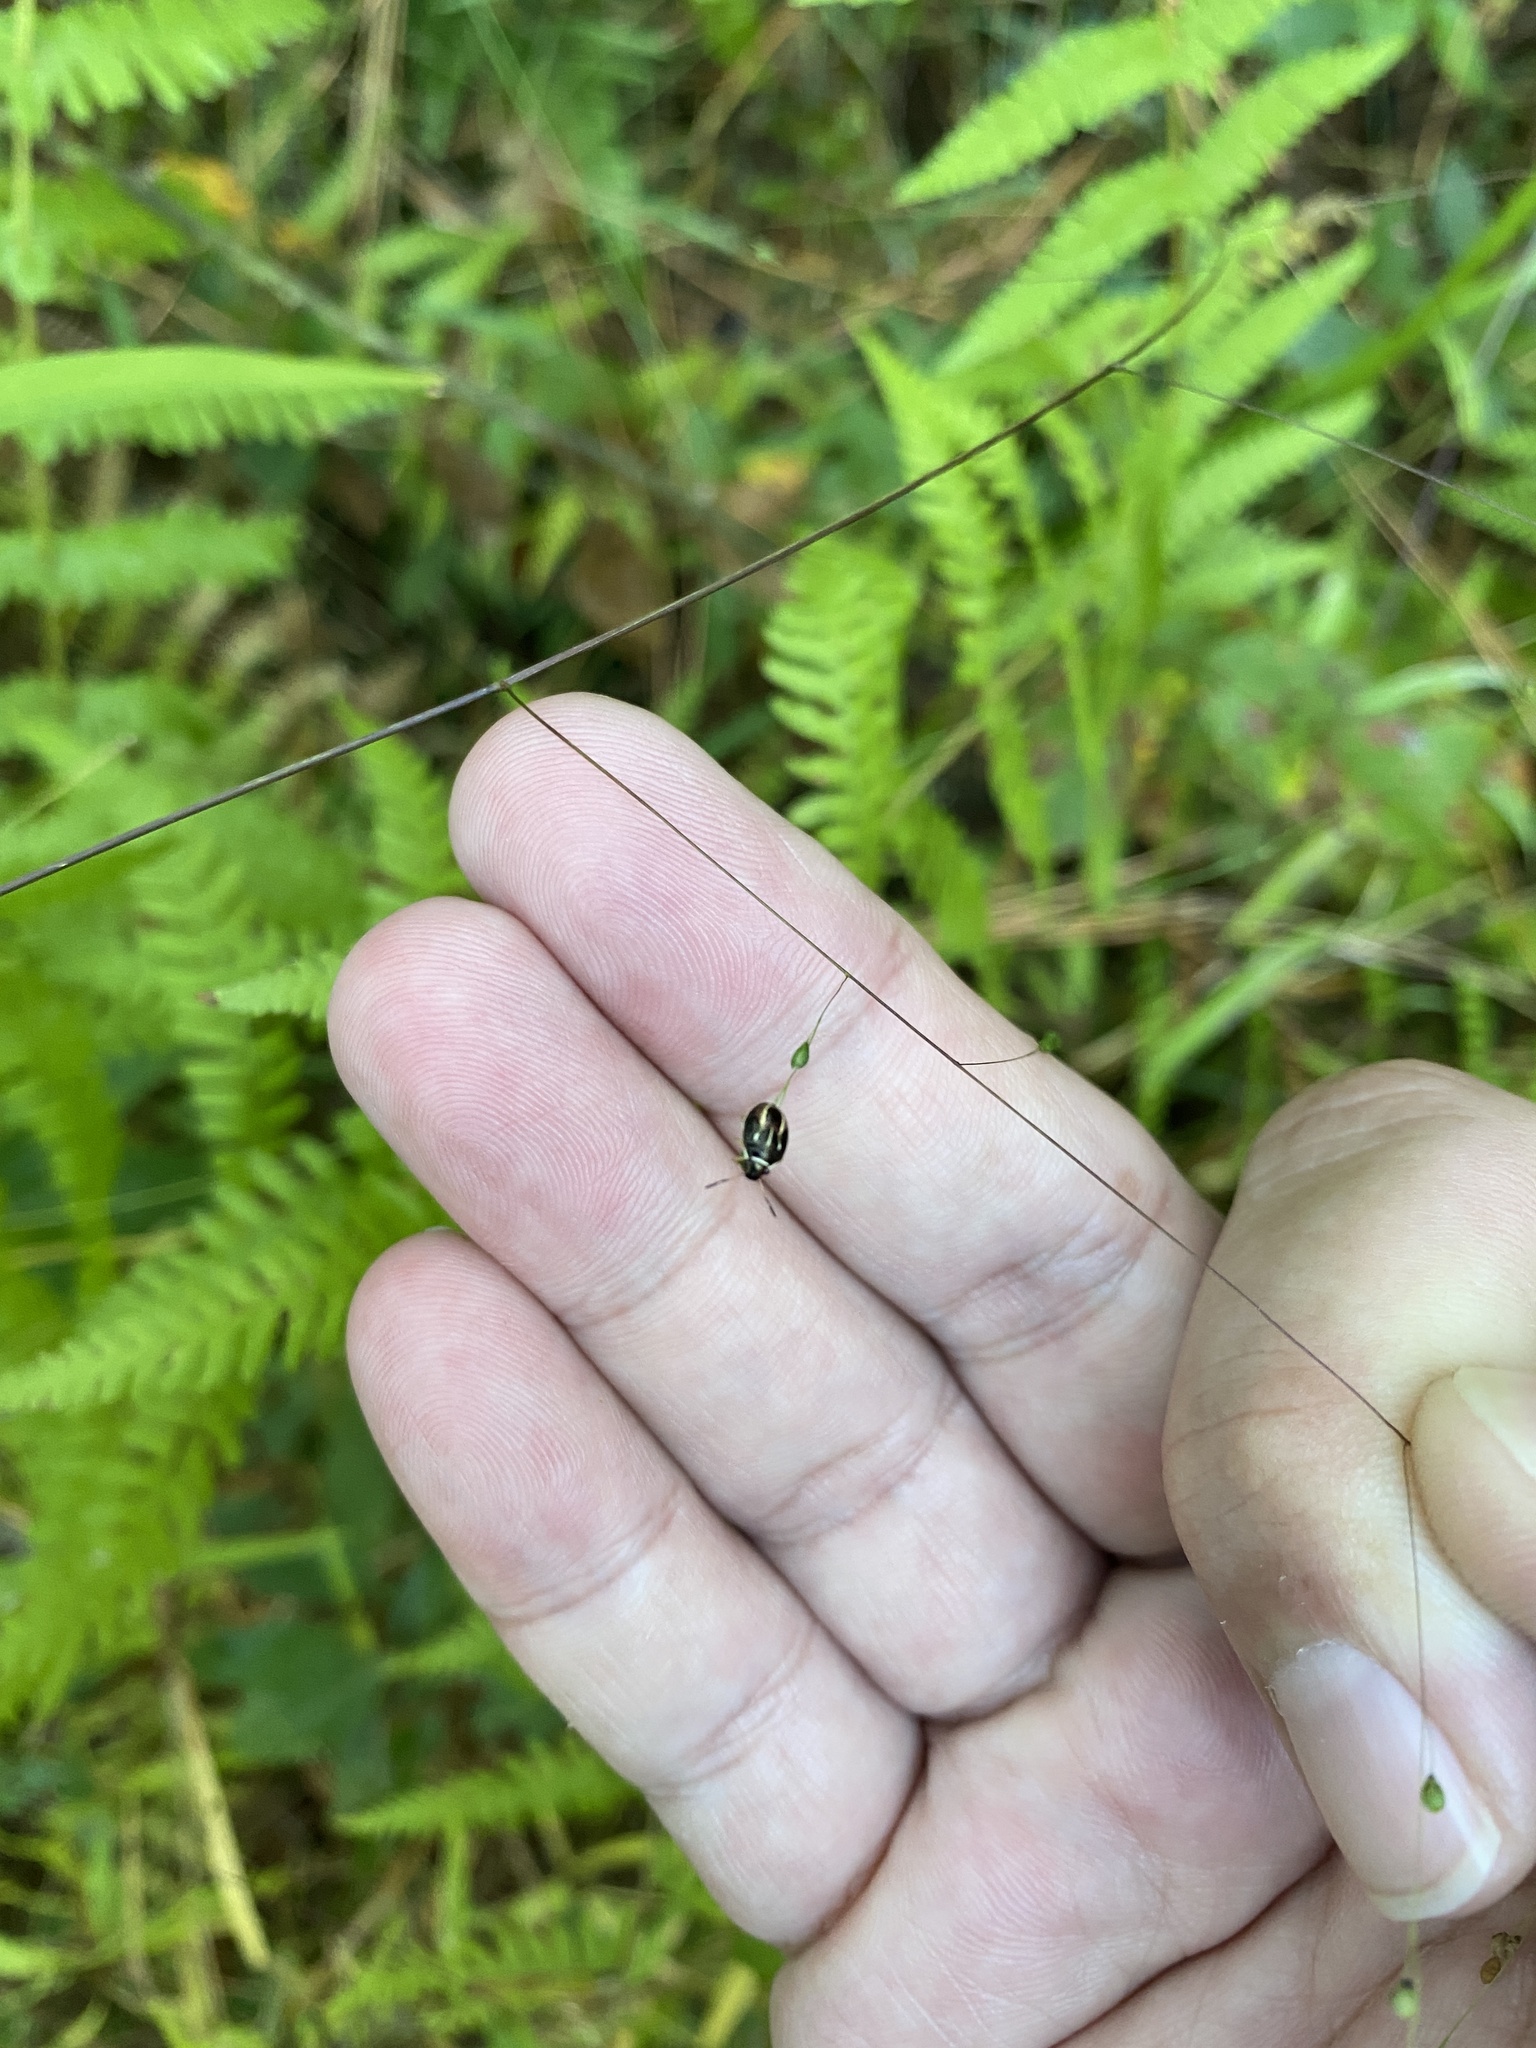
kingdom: Animalia
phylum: Arthropoda
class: Insecta
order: Hemiptera
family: Pentatomidae
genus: Mormidea
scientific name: Mormidea lugens
